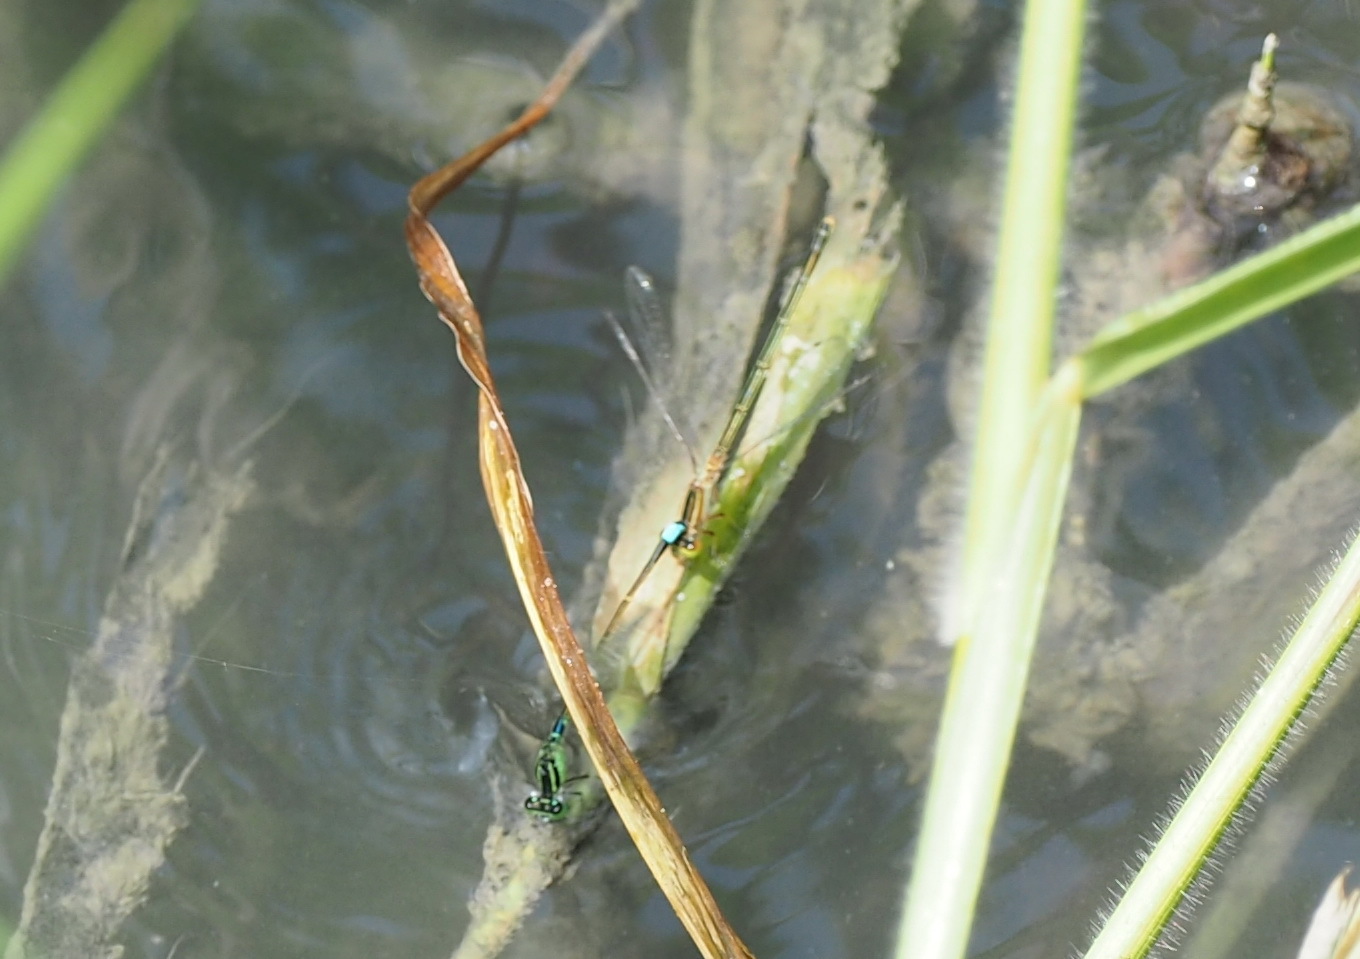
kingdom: Animalia
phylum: Arthropoda
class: Insecta
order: Odonata
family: Coenagrionidae
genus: Ischnura
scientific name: Ischnura senegalensis
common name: Tropical bluetail
